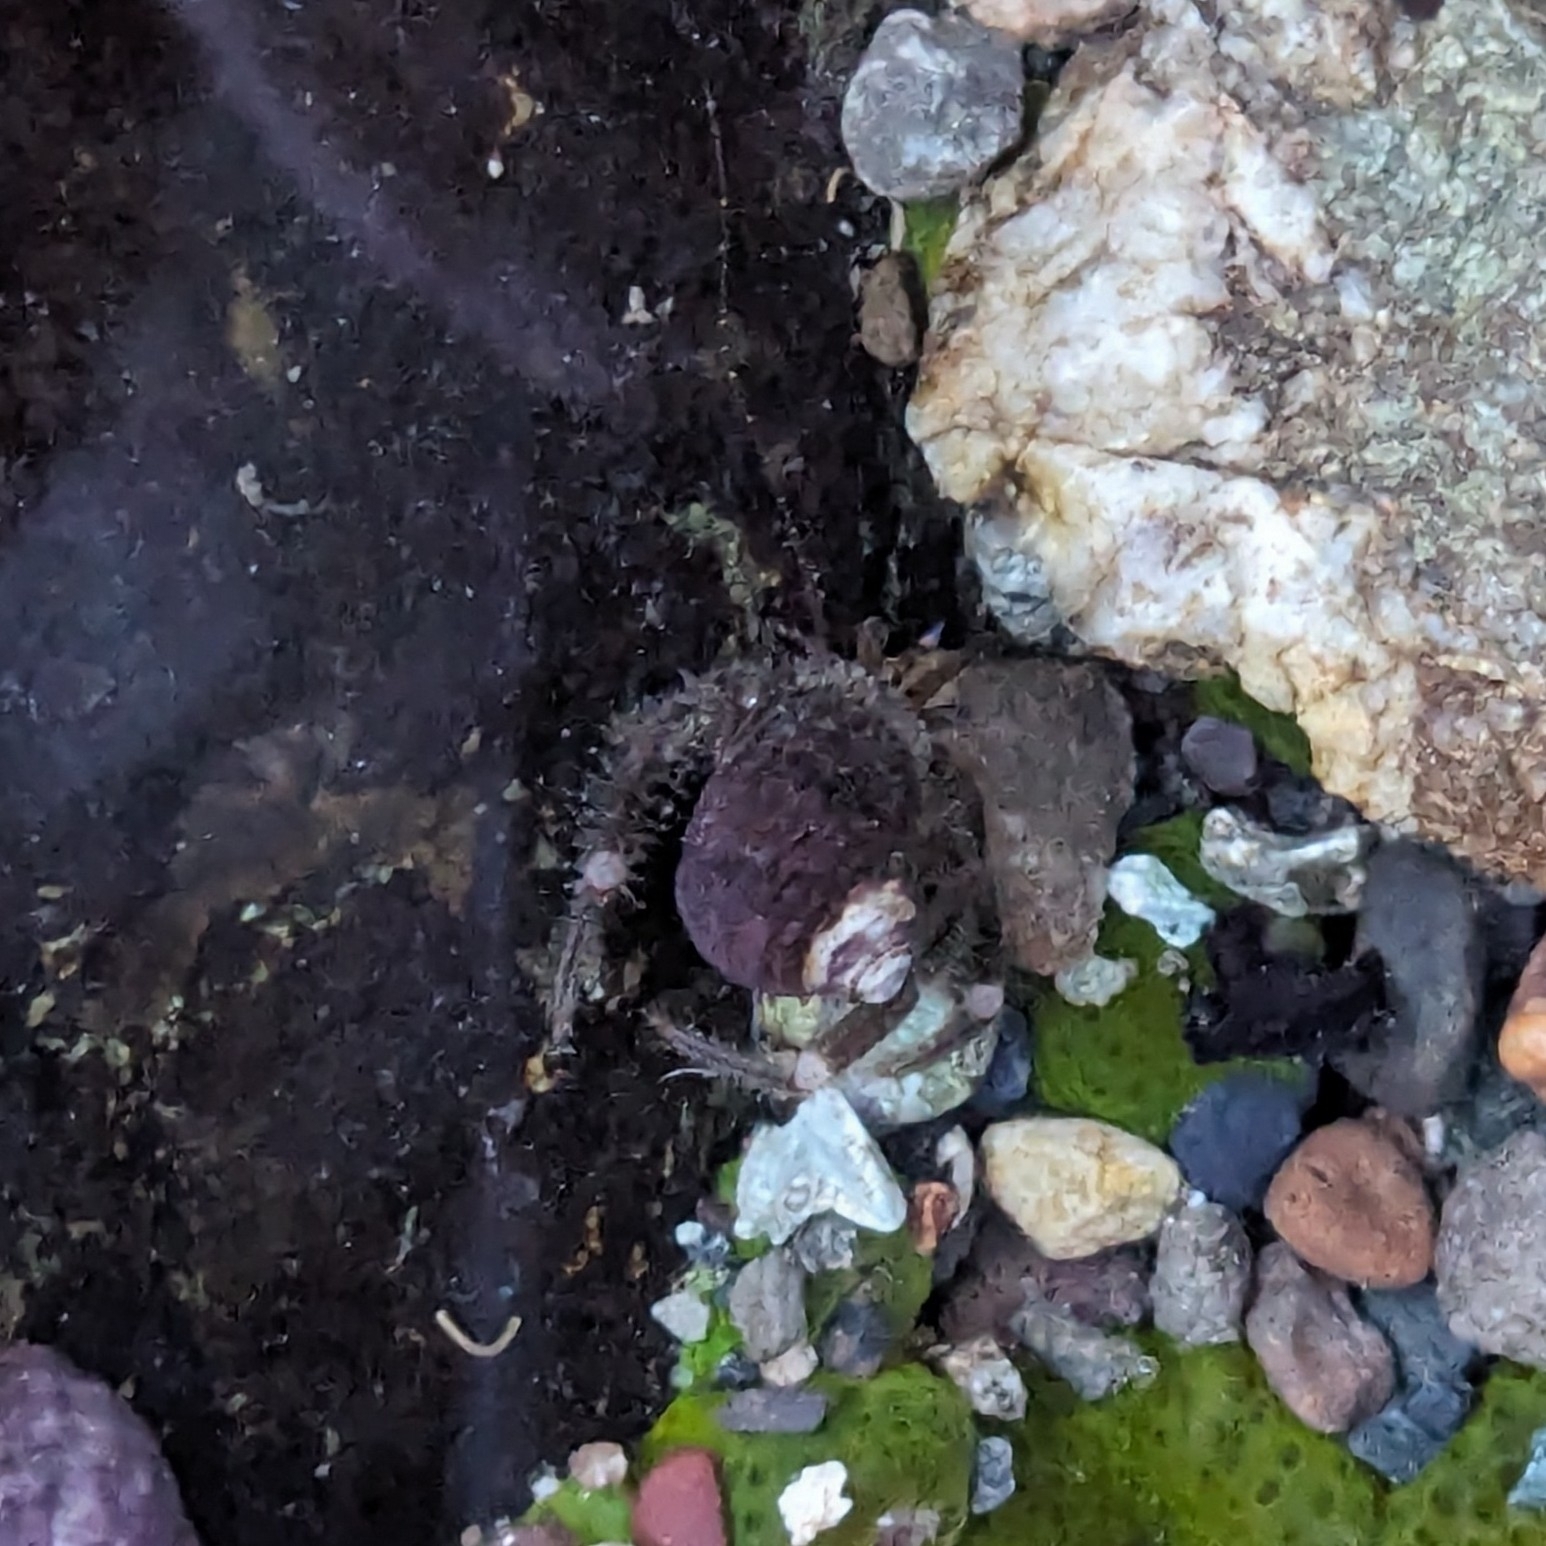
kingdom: Animalia
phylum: Arthropoda
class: Malacostraca
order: Decapoda
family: Paguridae
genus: Pagurus
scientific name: Pagurus hirsutiusculus
